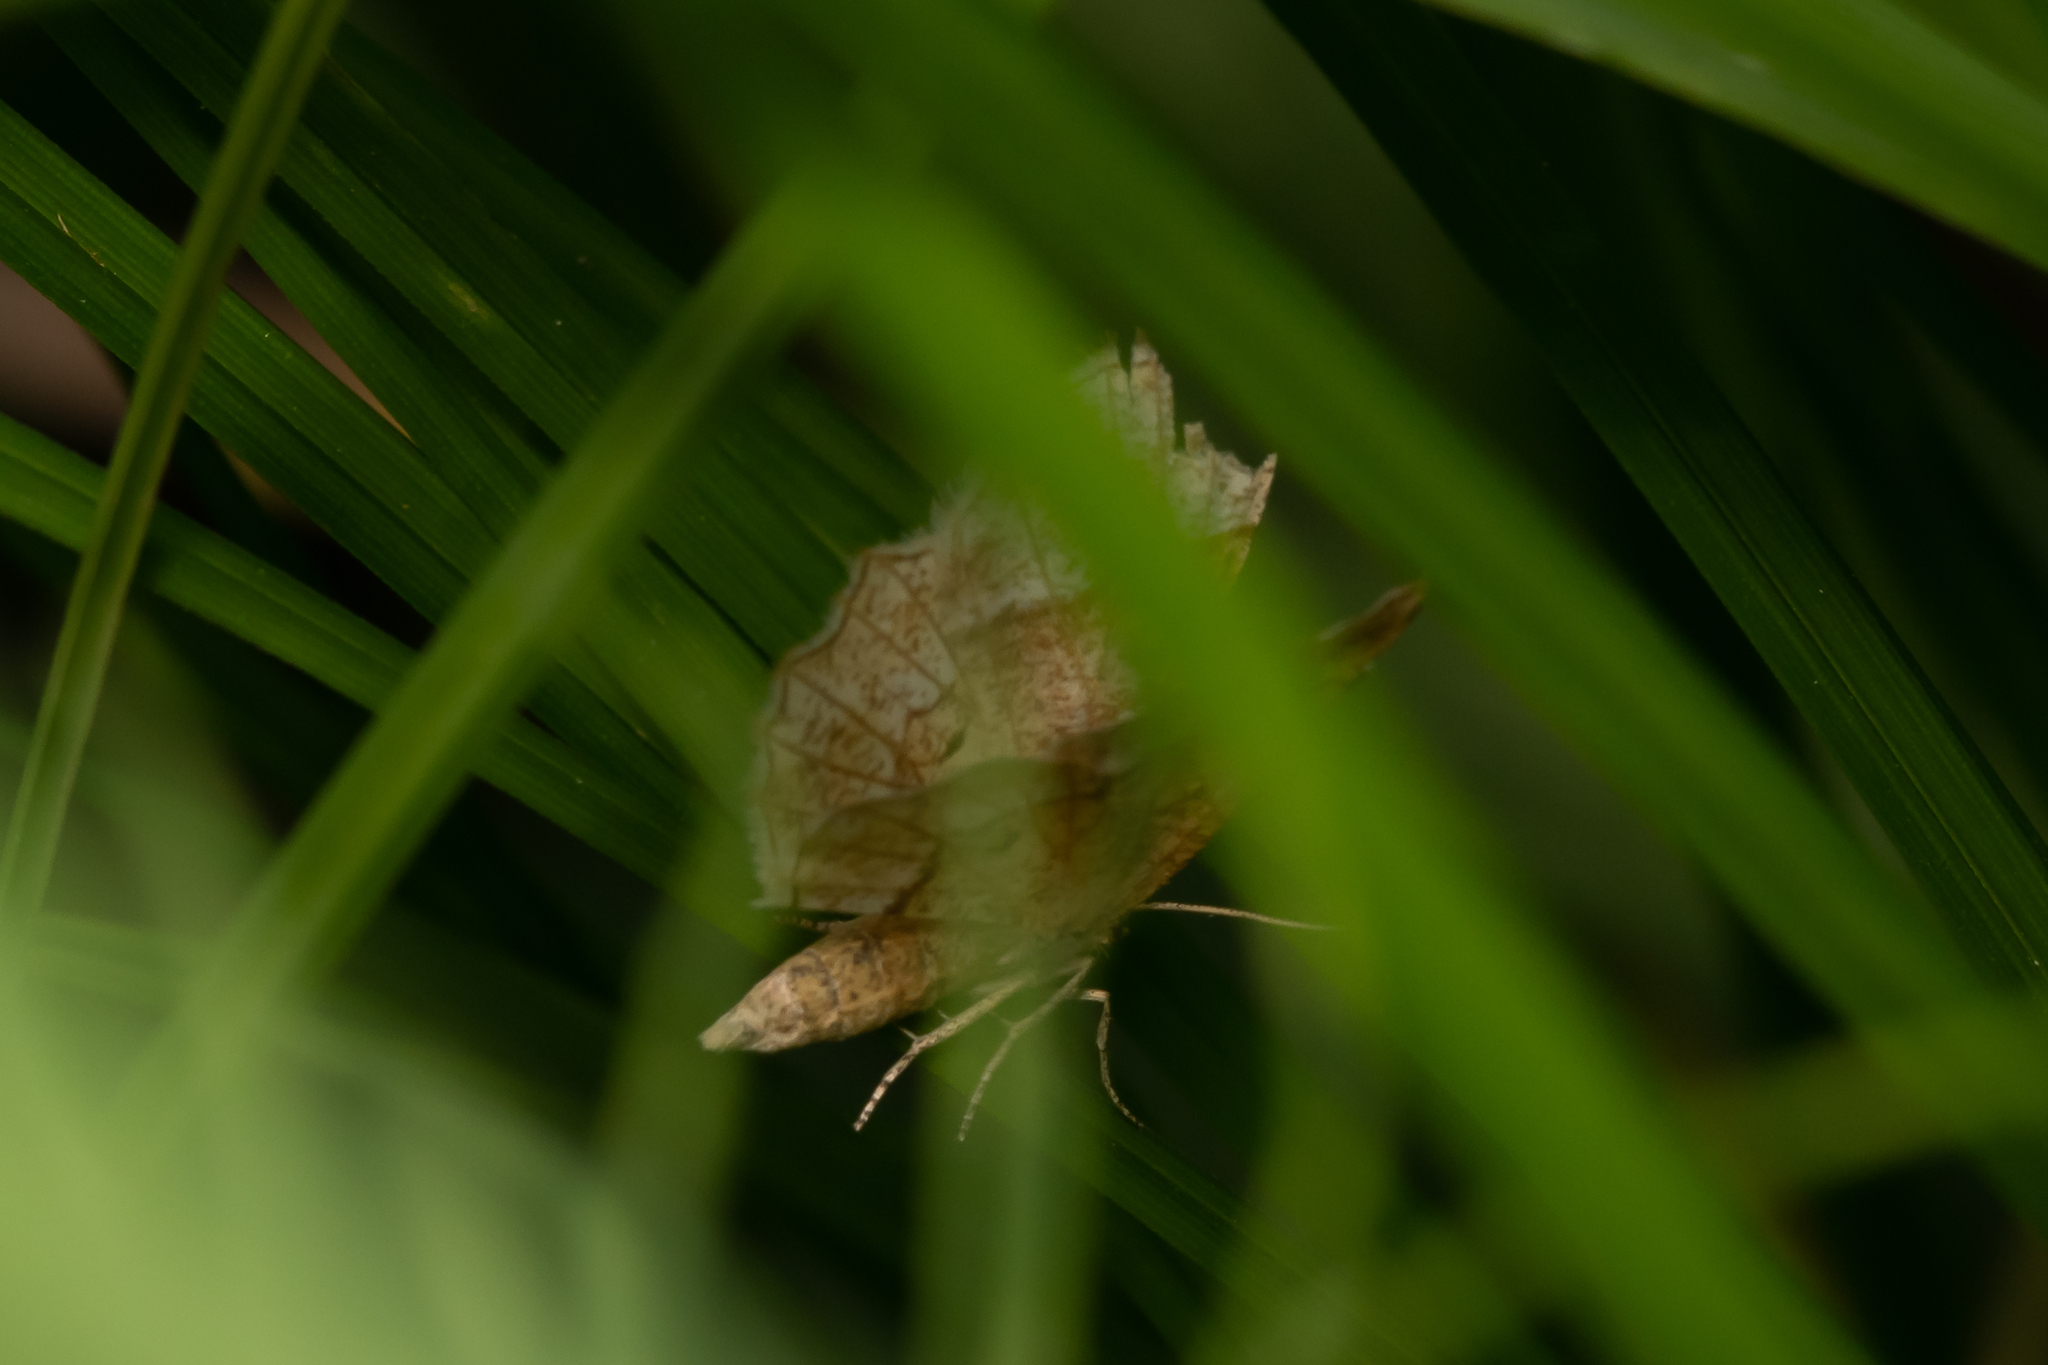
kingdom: Animalia
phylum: Arthropoda
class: Insecta
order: Lepidoptera
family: Geometridae
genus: Cepphis
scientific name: Cepphis advenaria
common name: Little thorn
